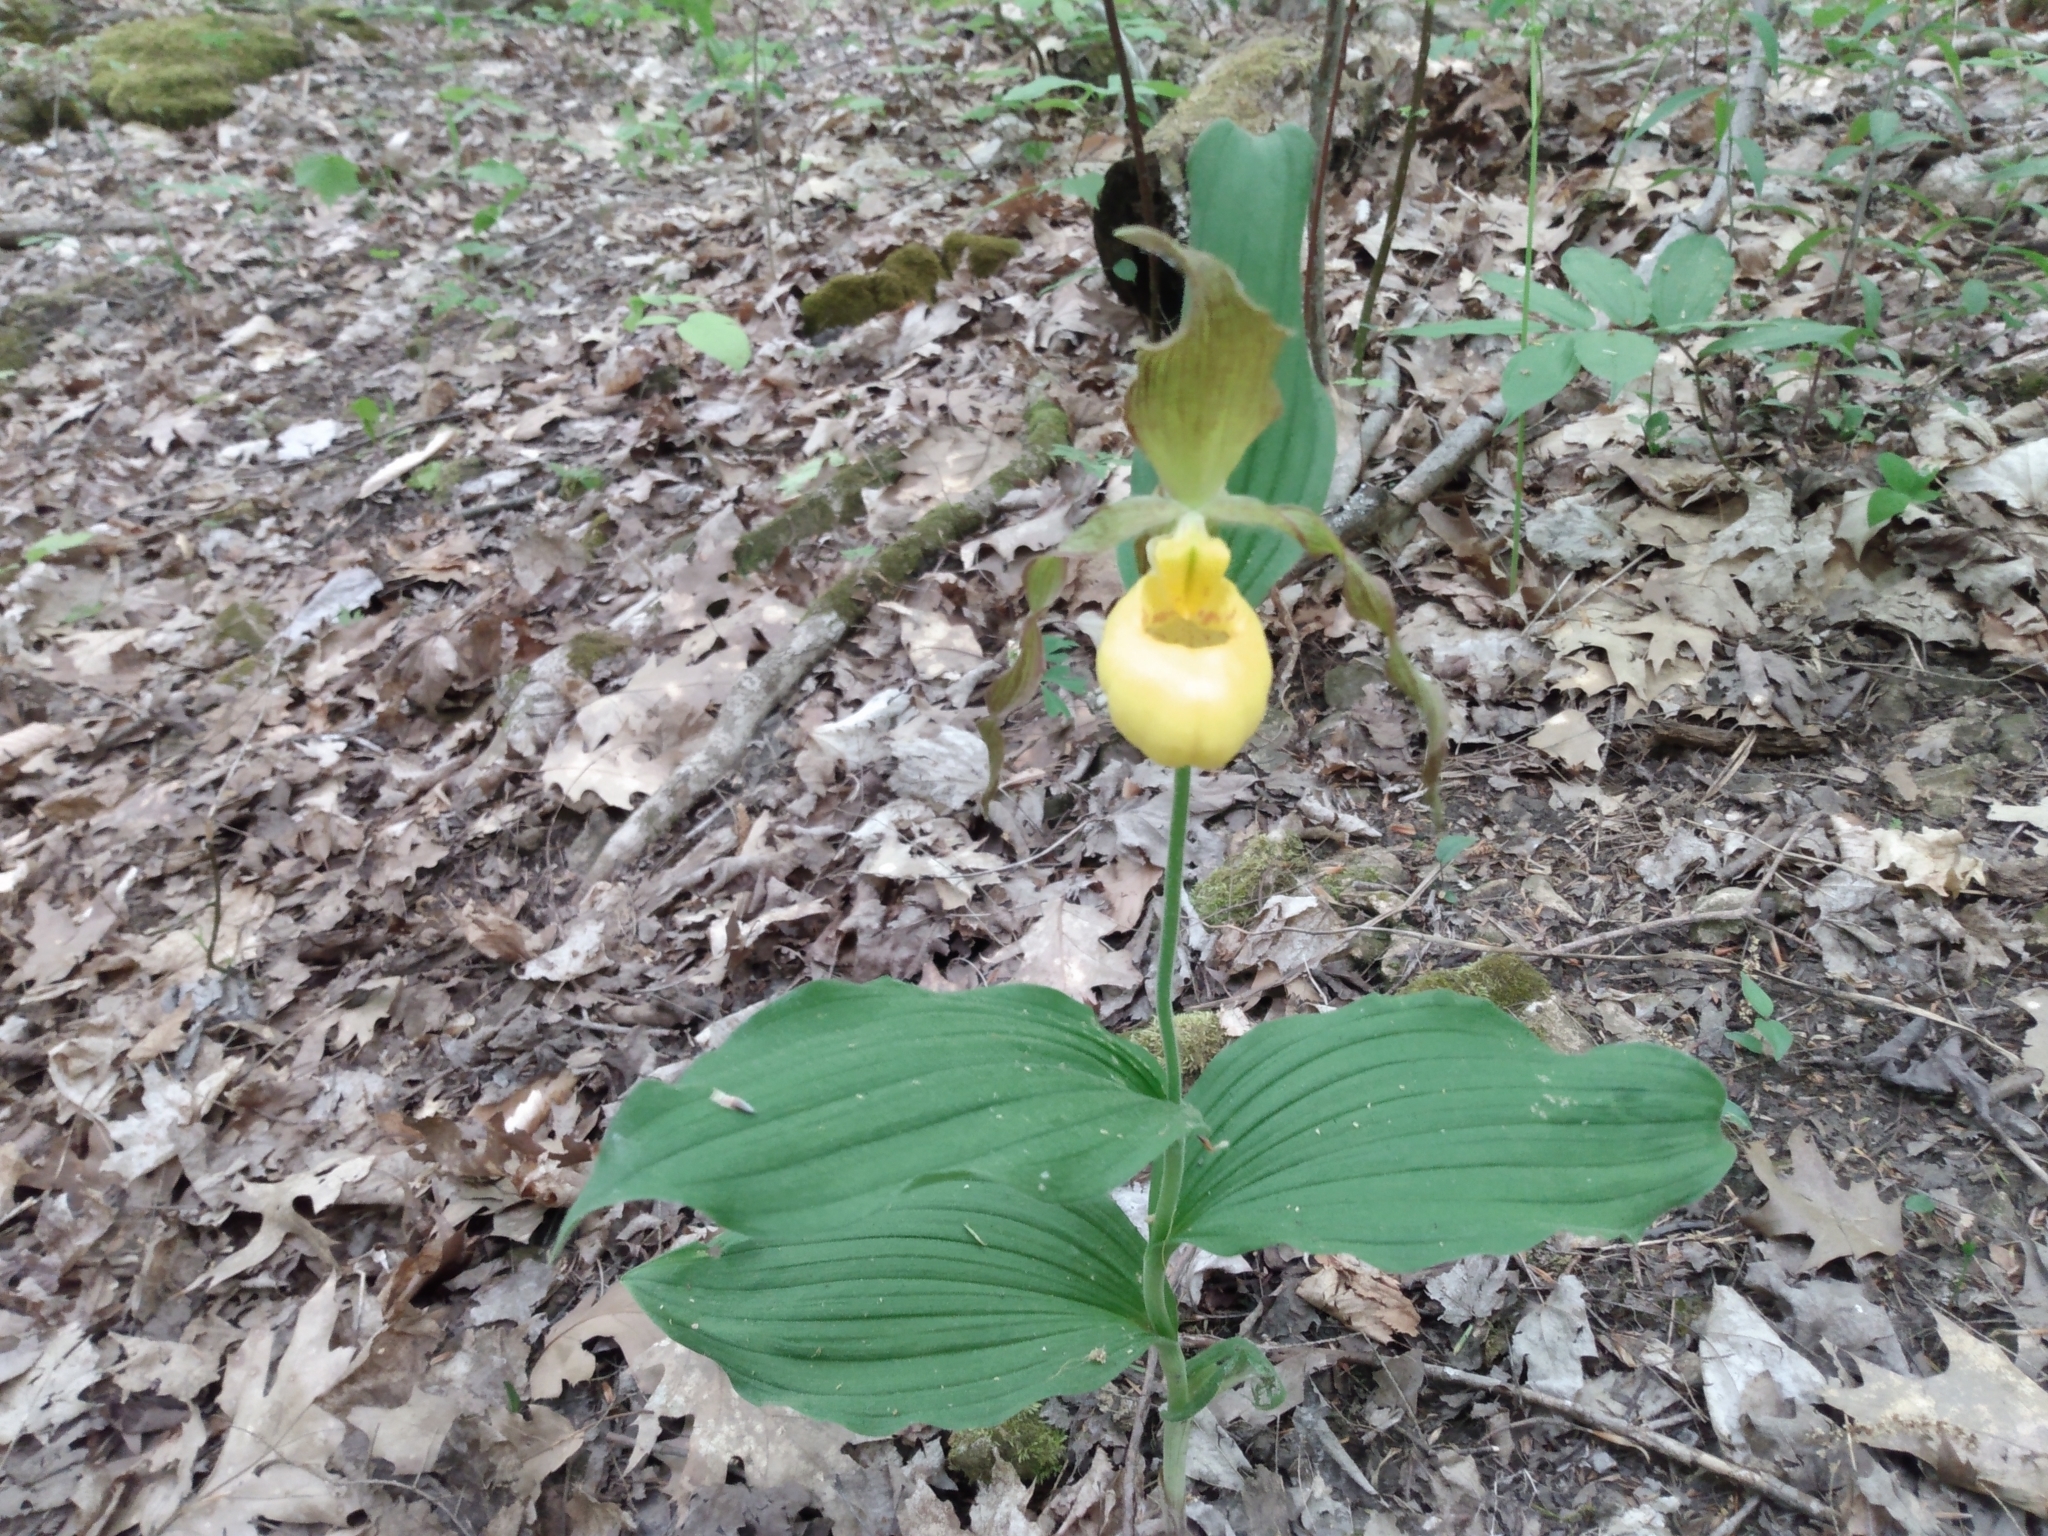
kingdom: Plantae
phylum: Tracheophyta
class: Liliopsida
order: Asparagales
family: Orchidaceae
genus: Cypripedium
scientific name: Cypripedium parviflorum
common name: American yellow lady's-slipper
